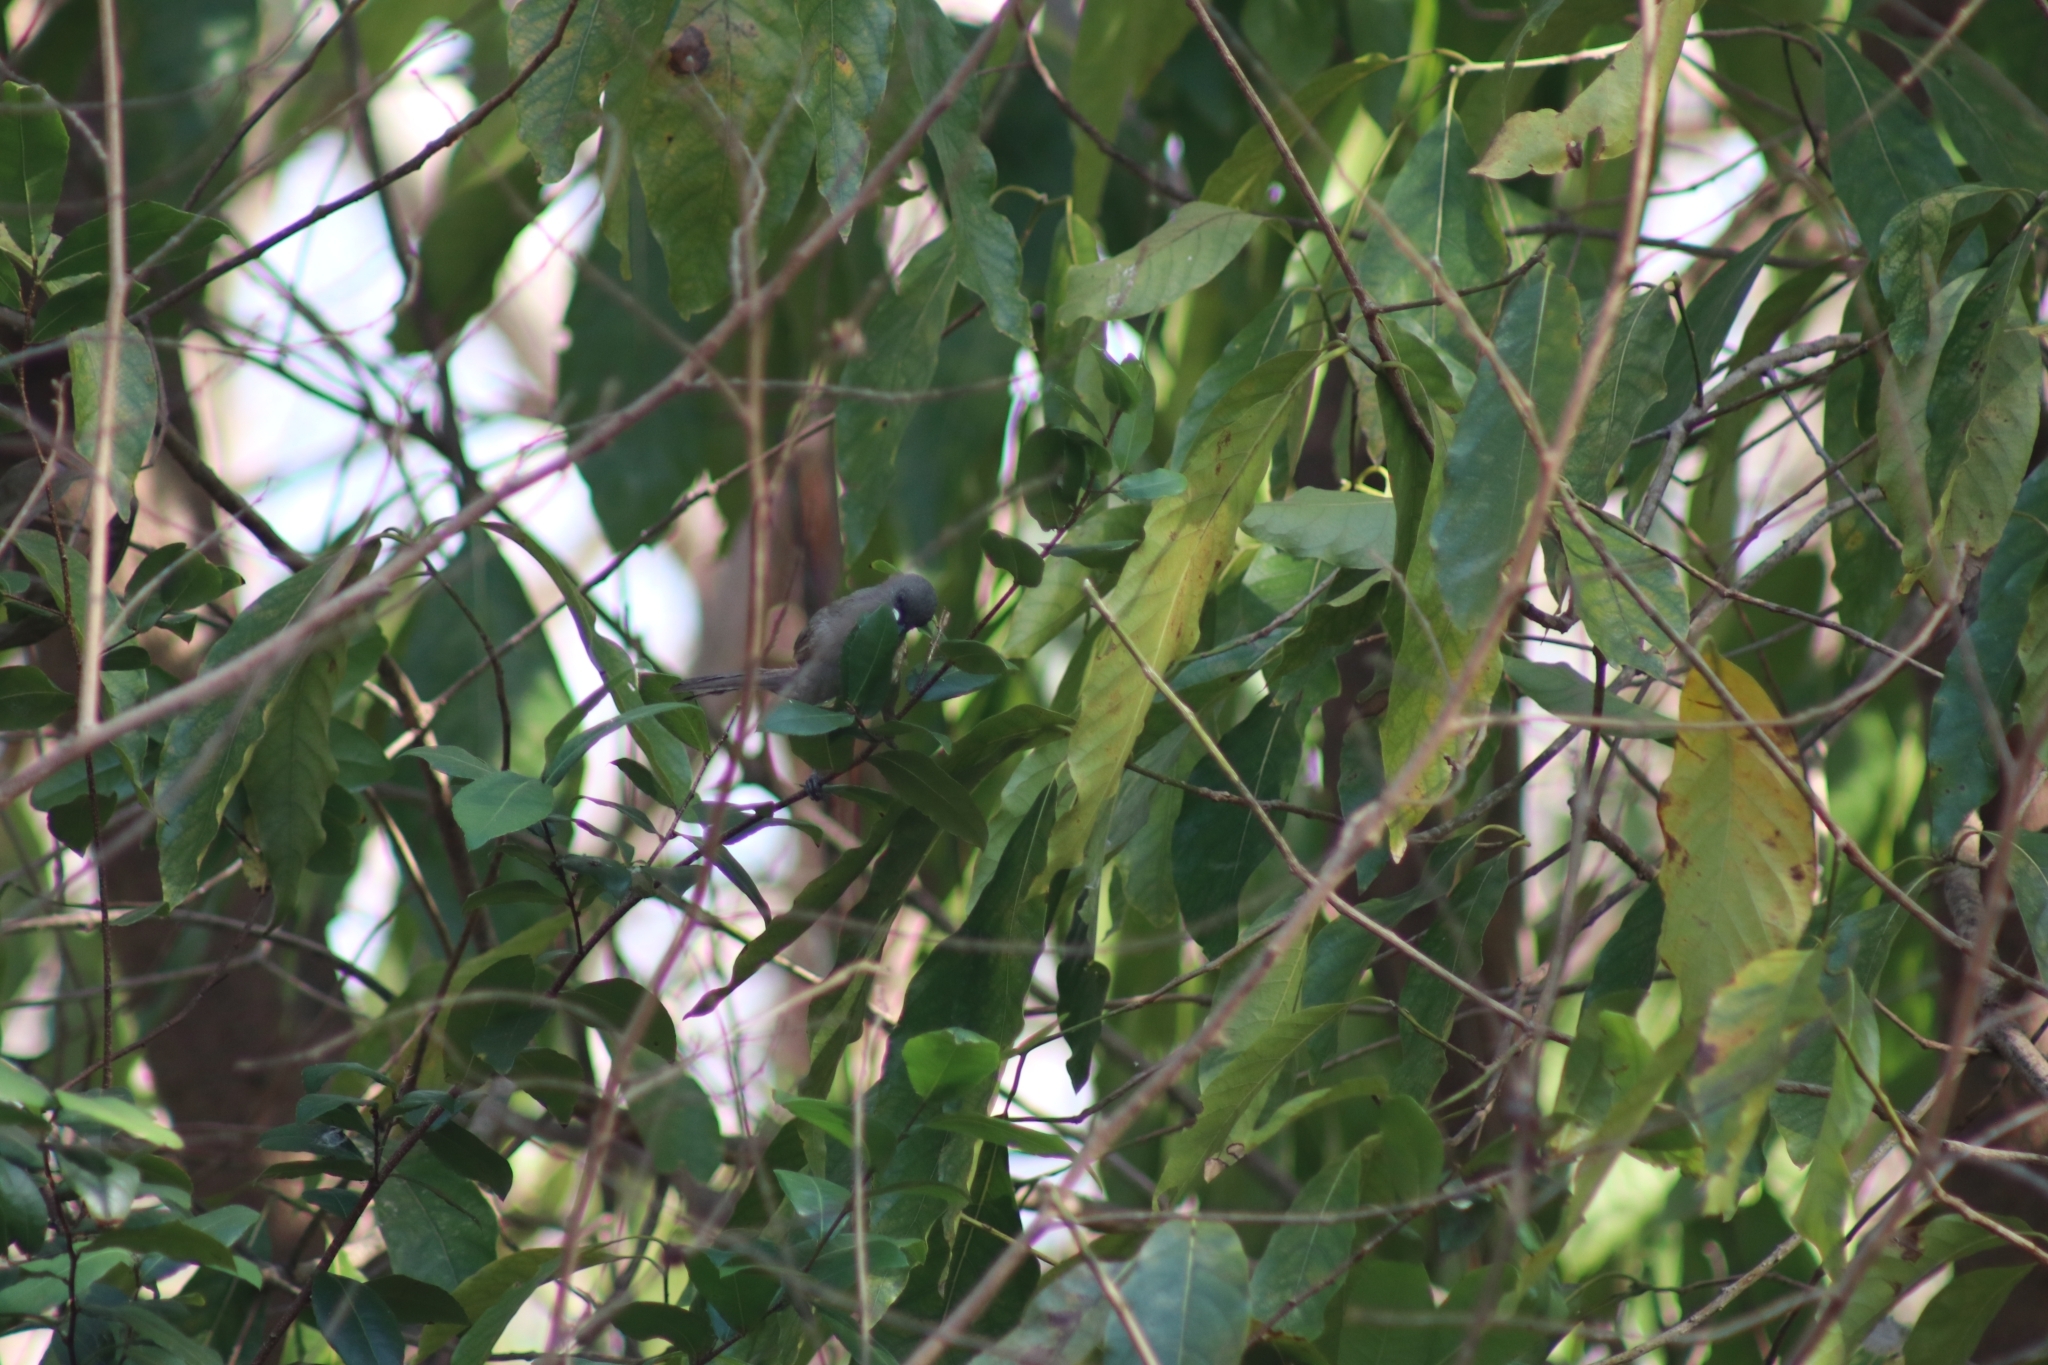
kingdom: Animalia
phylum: Chordata
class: Aves
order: Passeriformes
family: Meliphagidae
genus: Stomiopera
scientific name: Stomiopera unicolor
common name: White-gaped honeyeater
